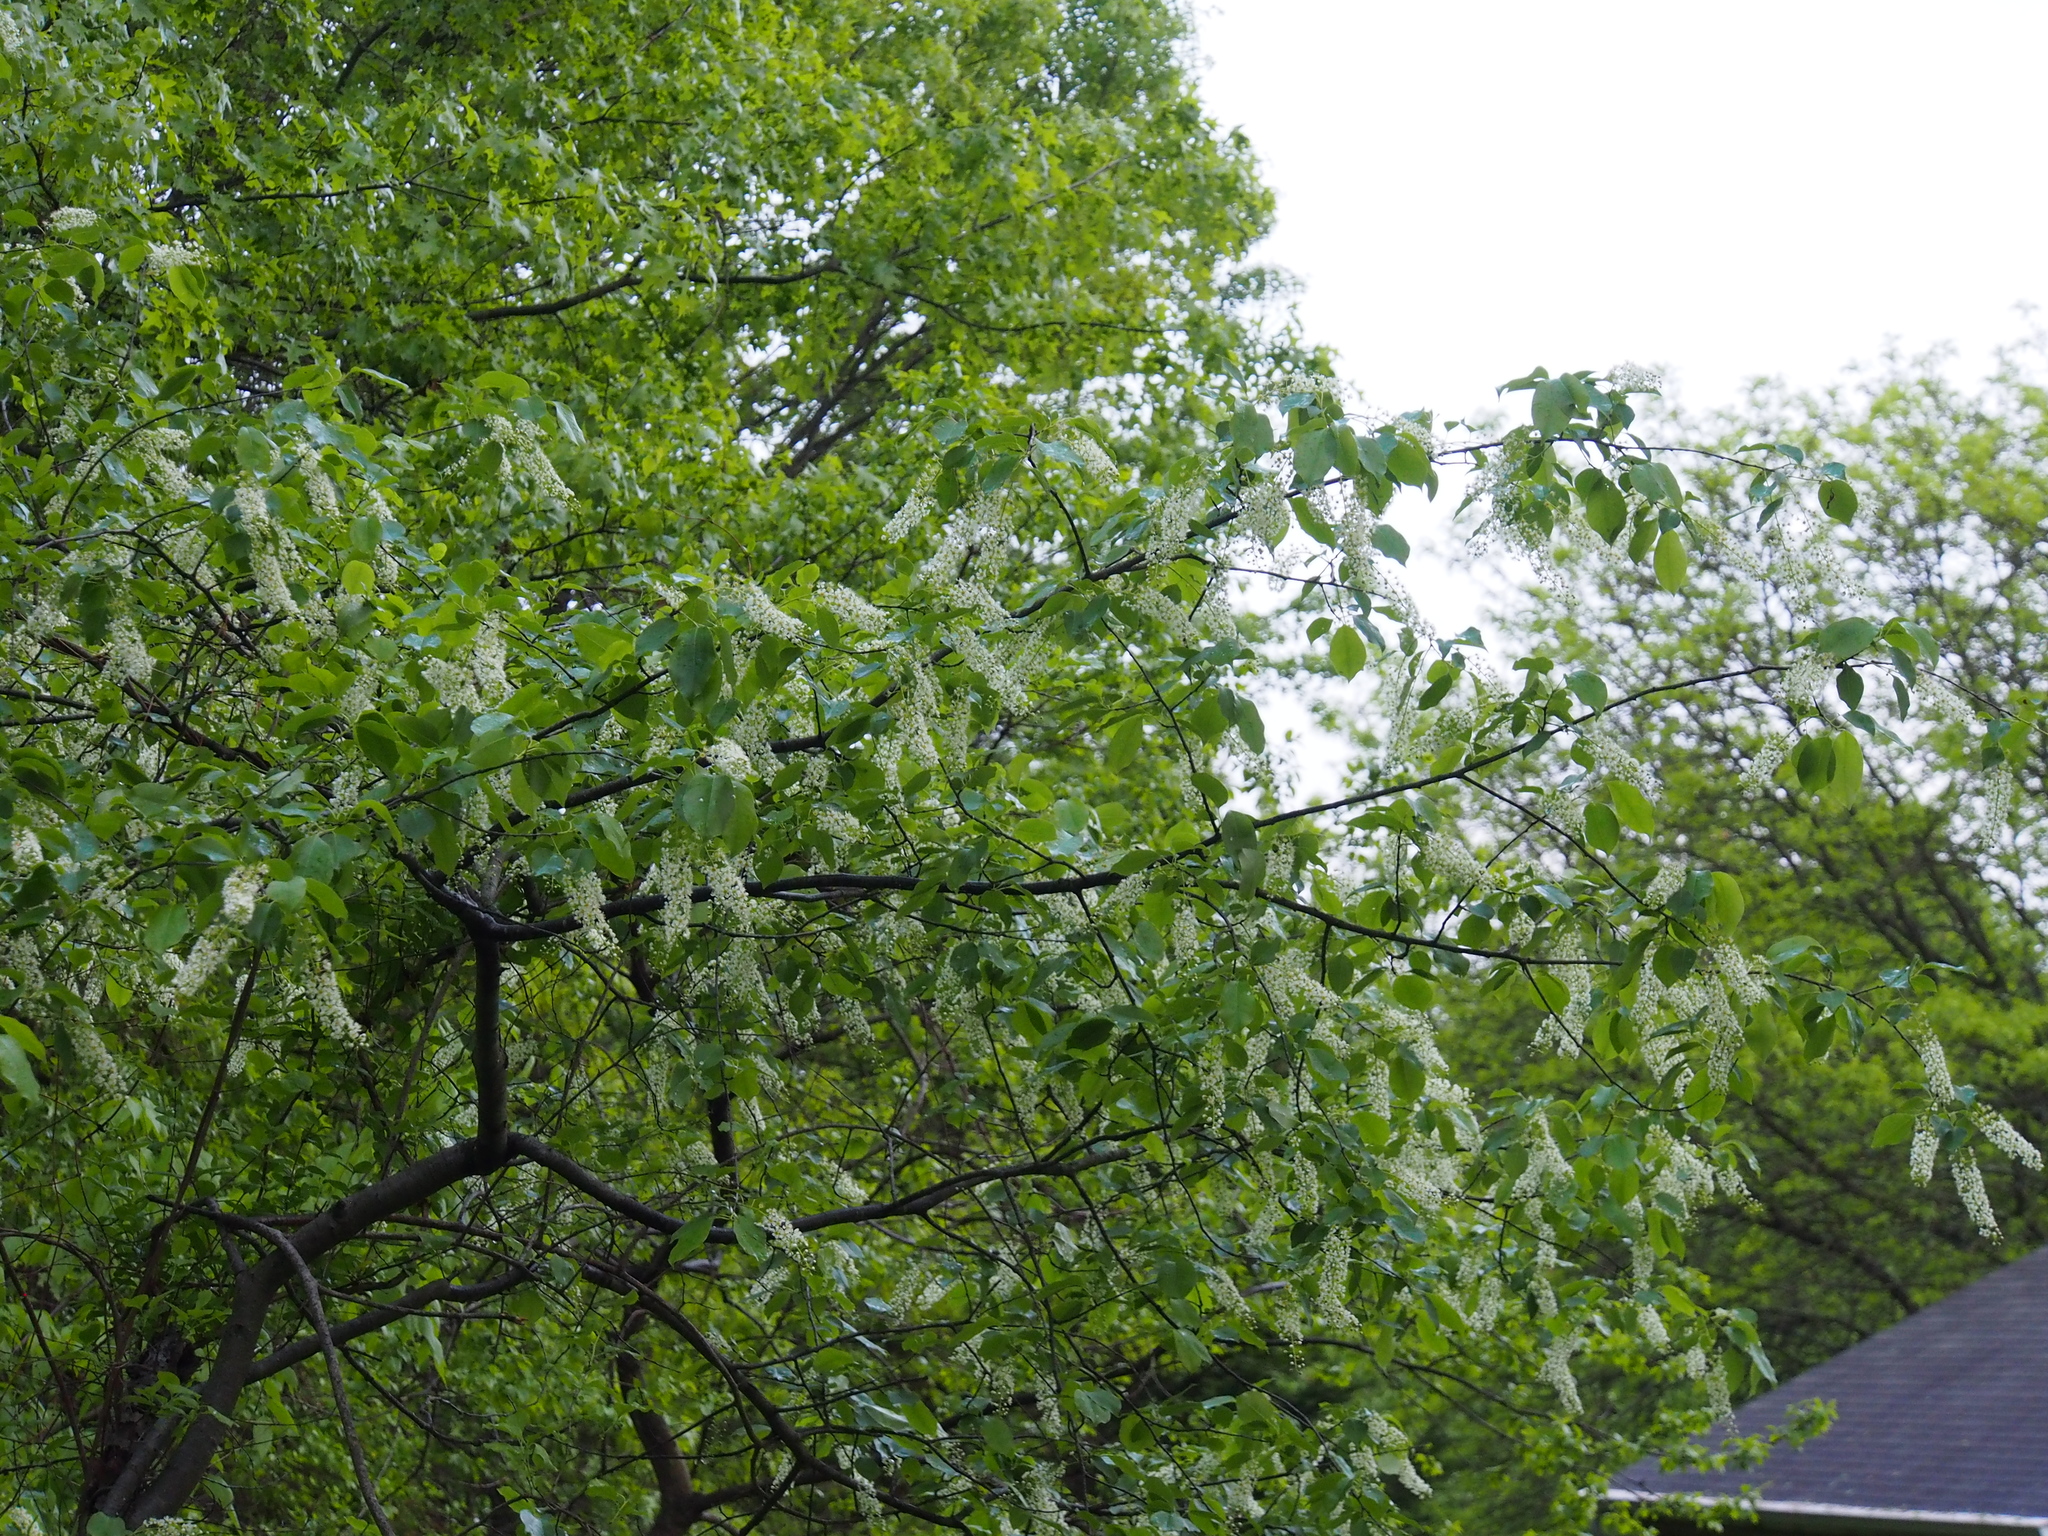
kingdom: Plantae
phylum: Tracheophyta
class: Magnoliopsida
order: Rosales
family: Rosaceae
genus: Prunus
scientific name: Prunus serotina
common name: Black cherry
